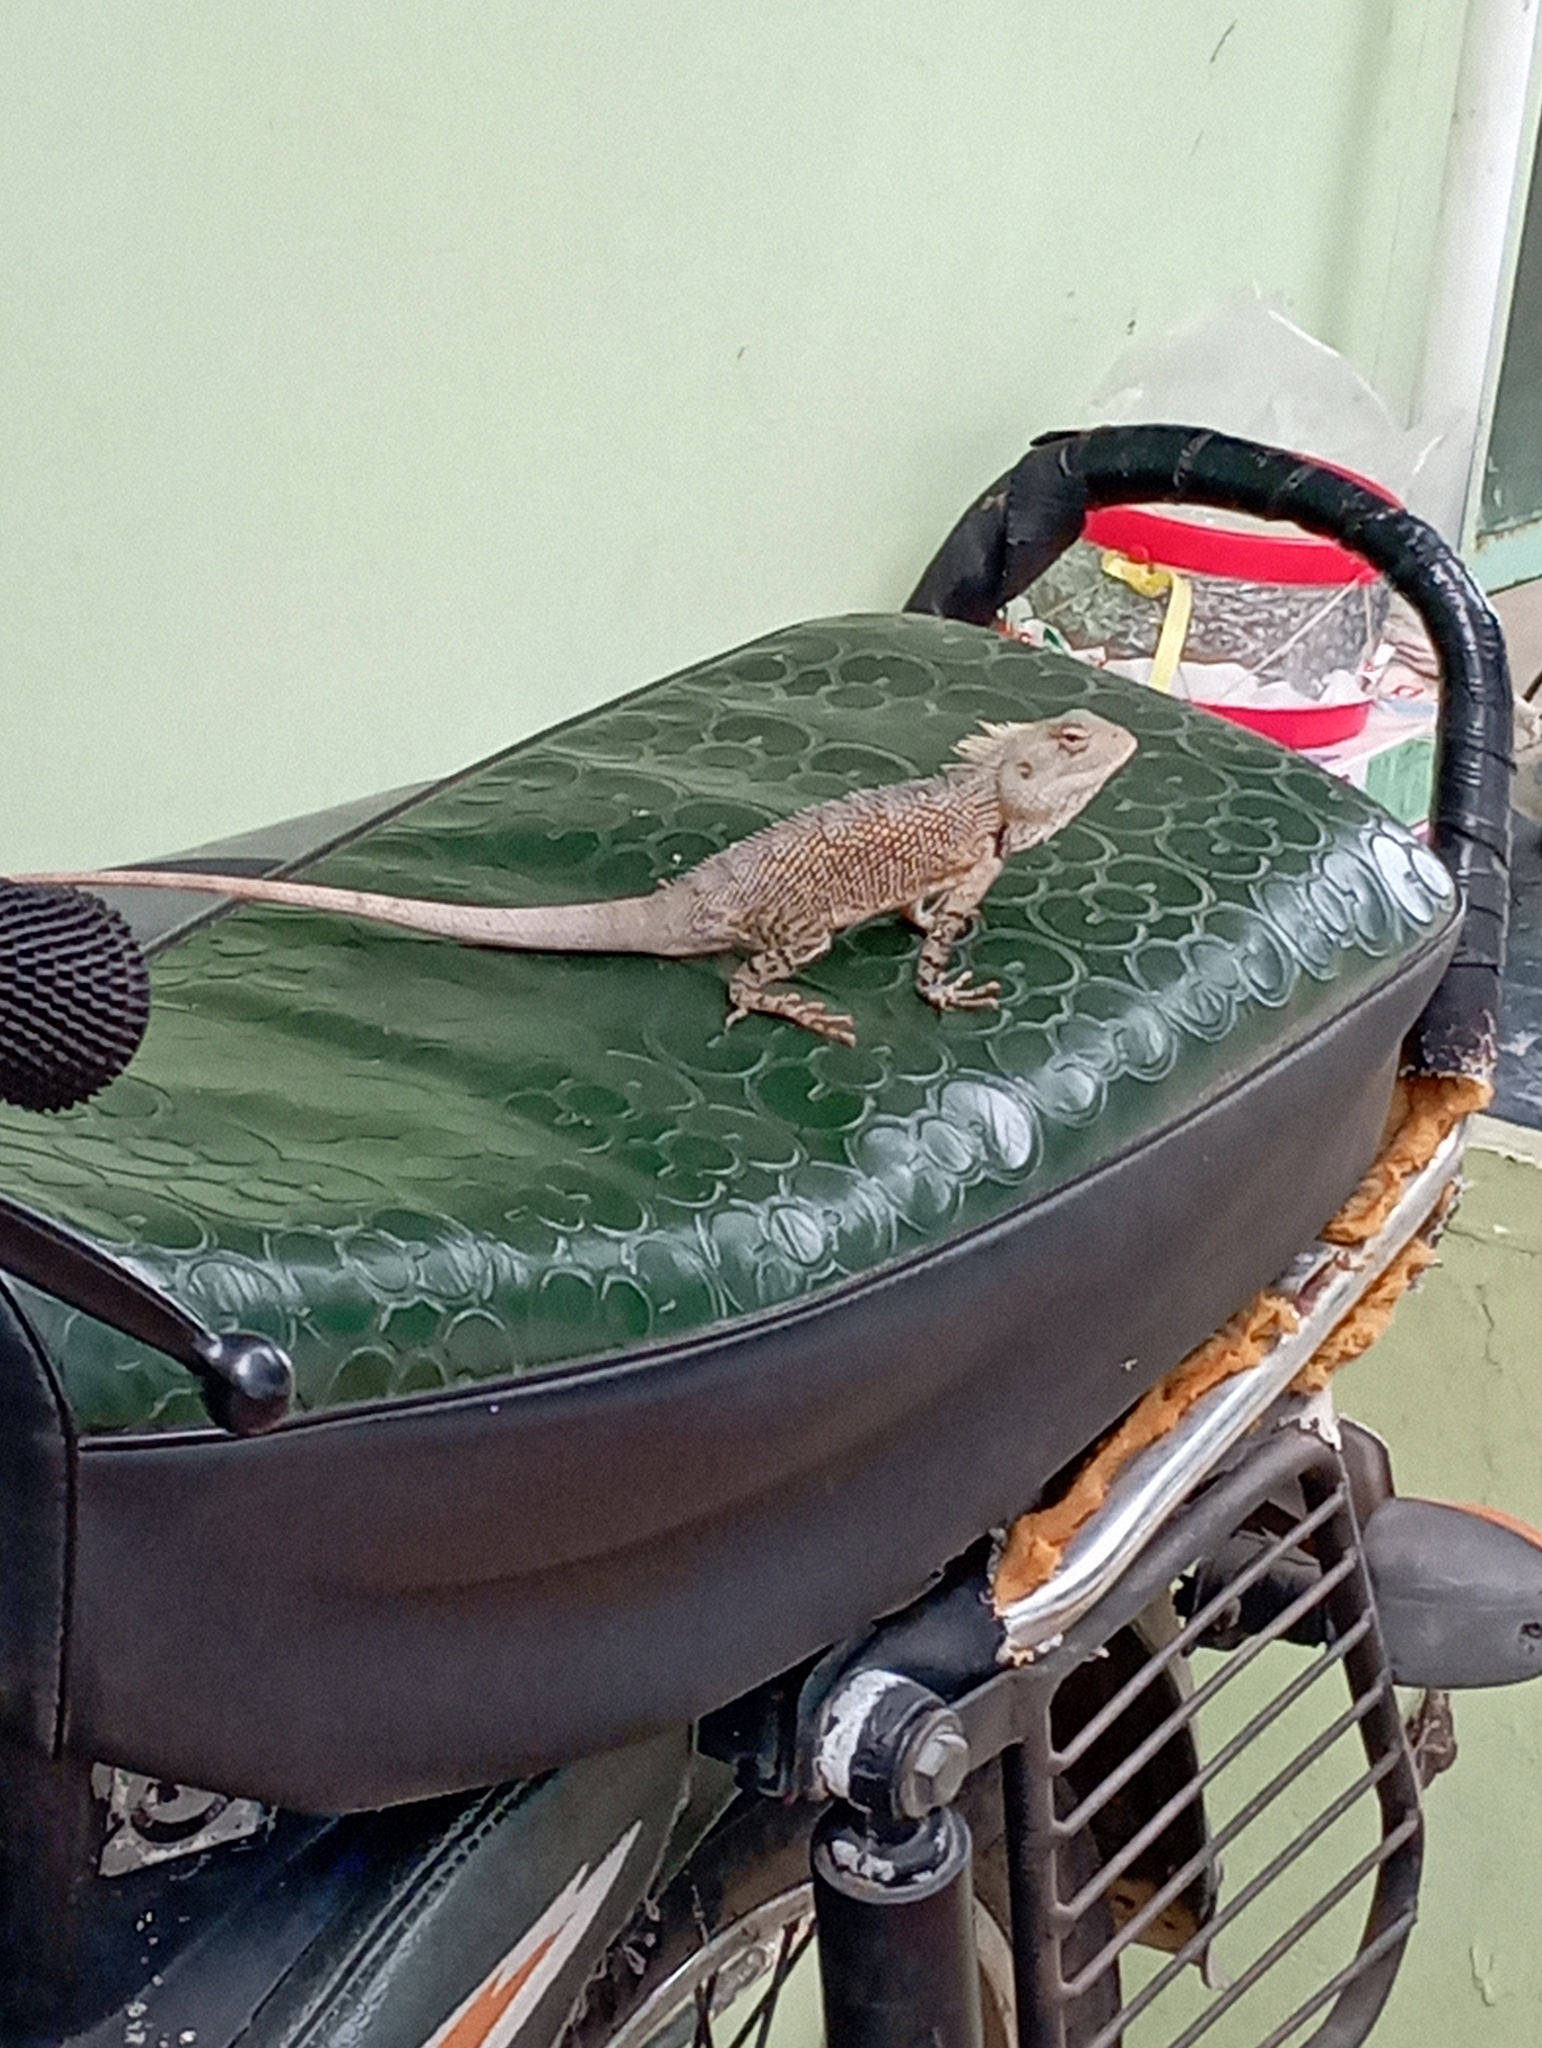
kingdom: Animalia
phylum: Chordata
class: Squamata
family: Agamidae
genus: Calotes
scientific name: Calotes versicolor
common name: Oriental garden lizard
